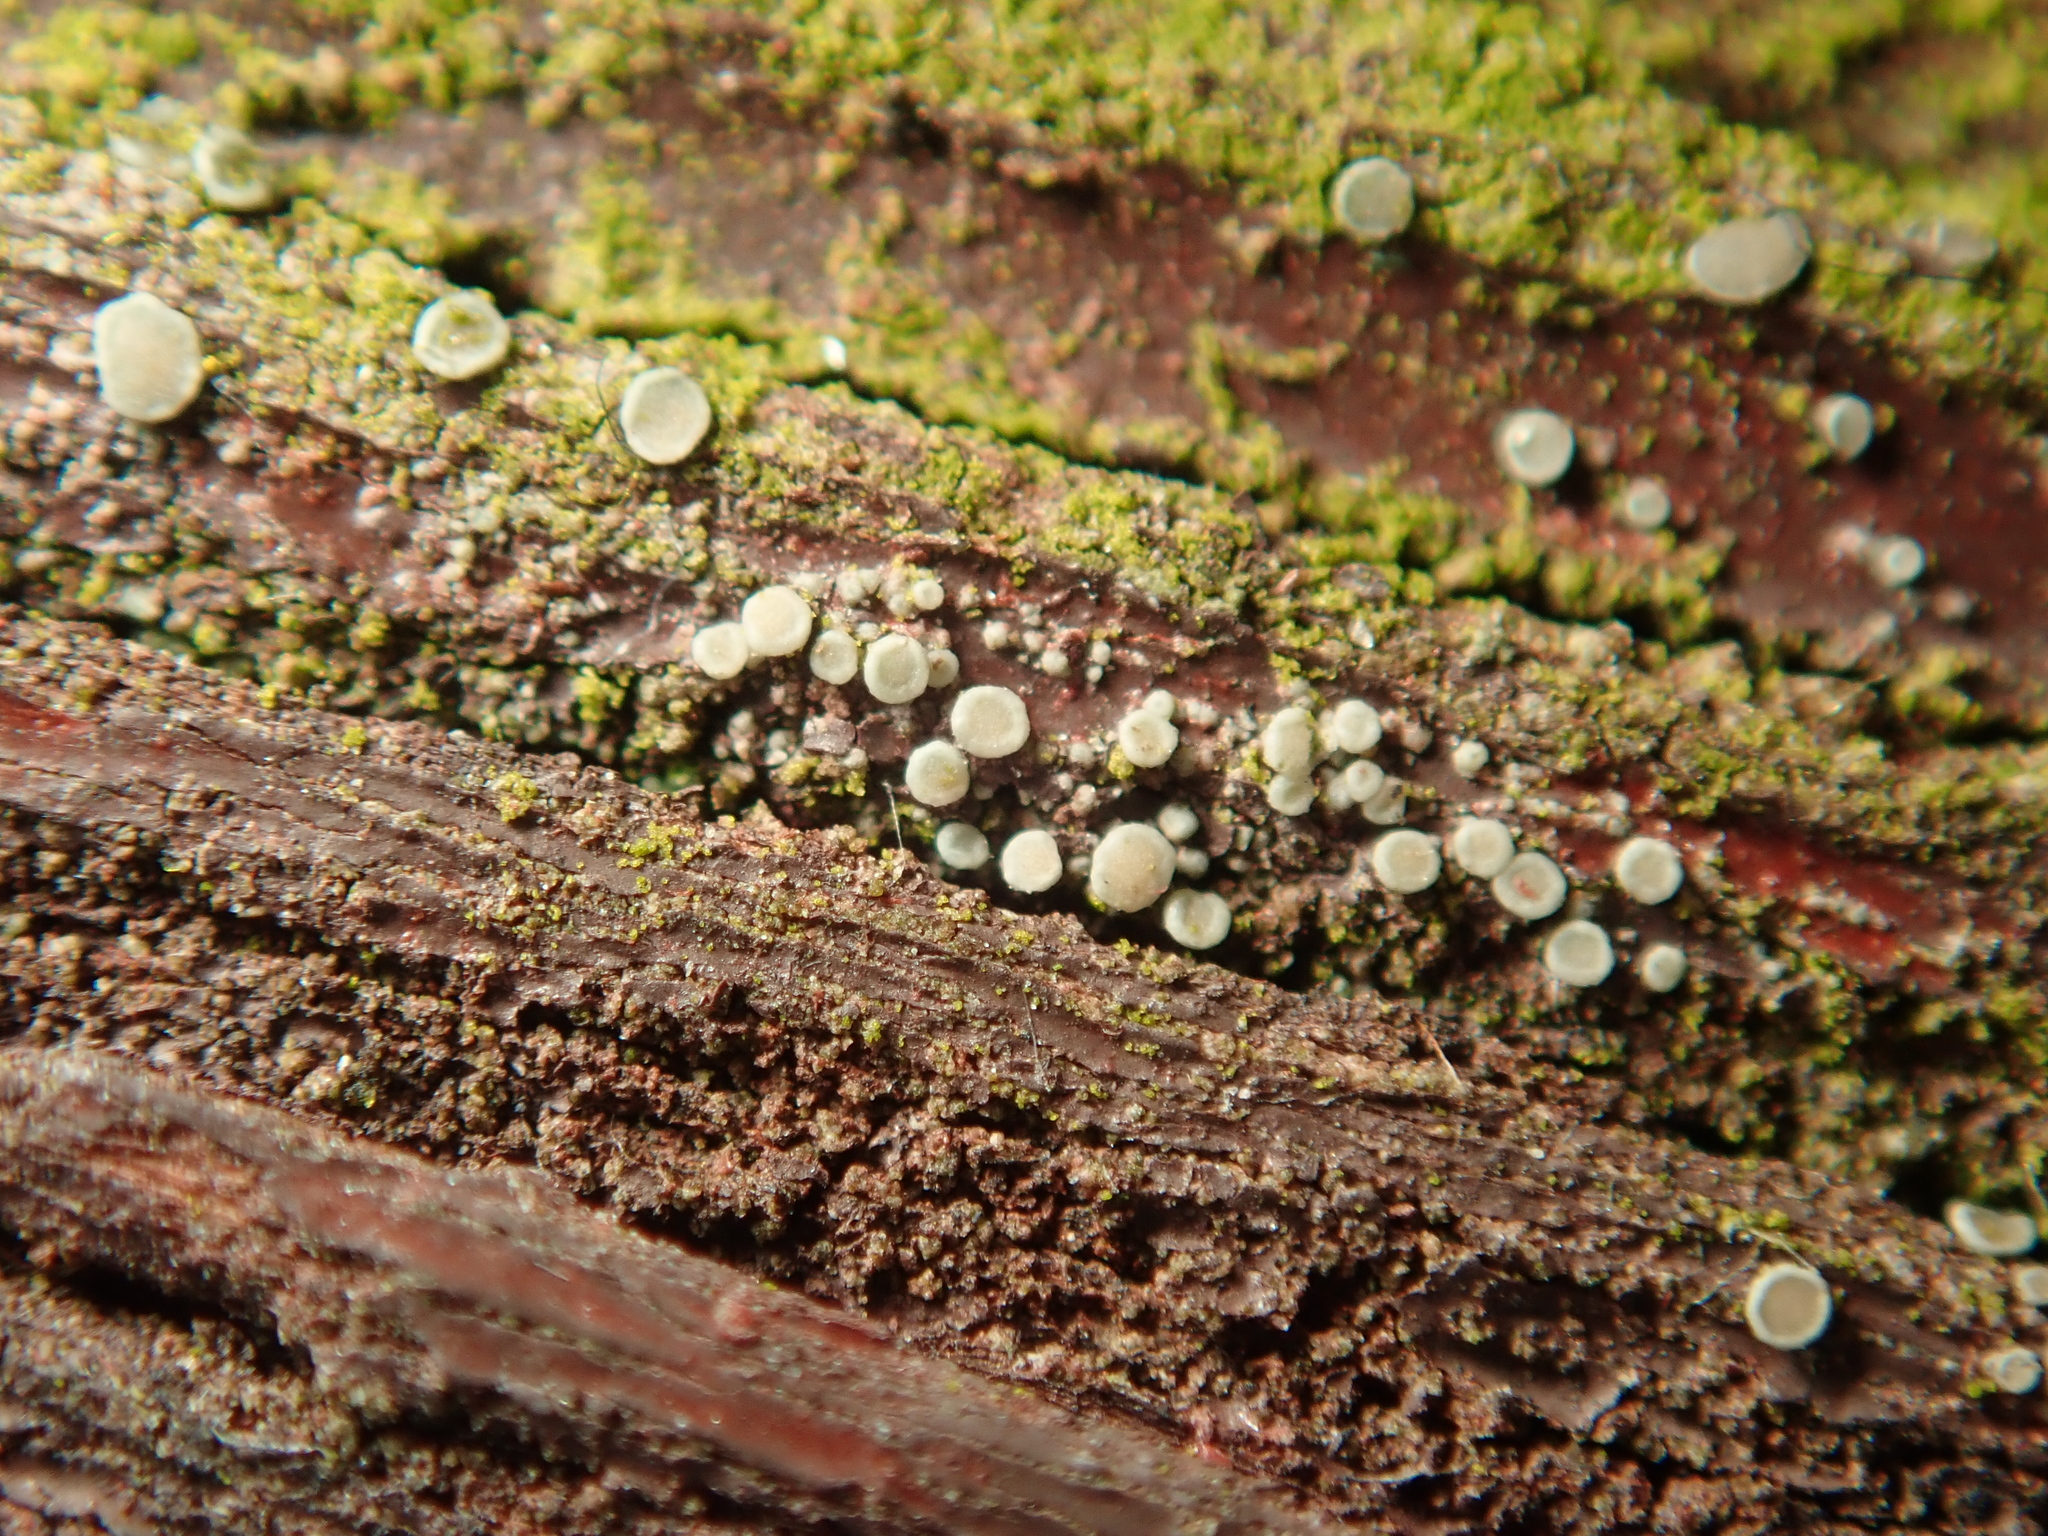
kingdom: Fungi
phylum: Ascomycota
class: Lecanoromycetes
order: Lecanorales
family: Lecanoraceae
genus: Myriolecis
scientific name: Myriolecis
